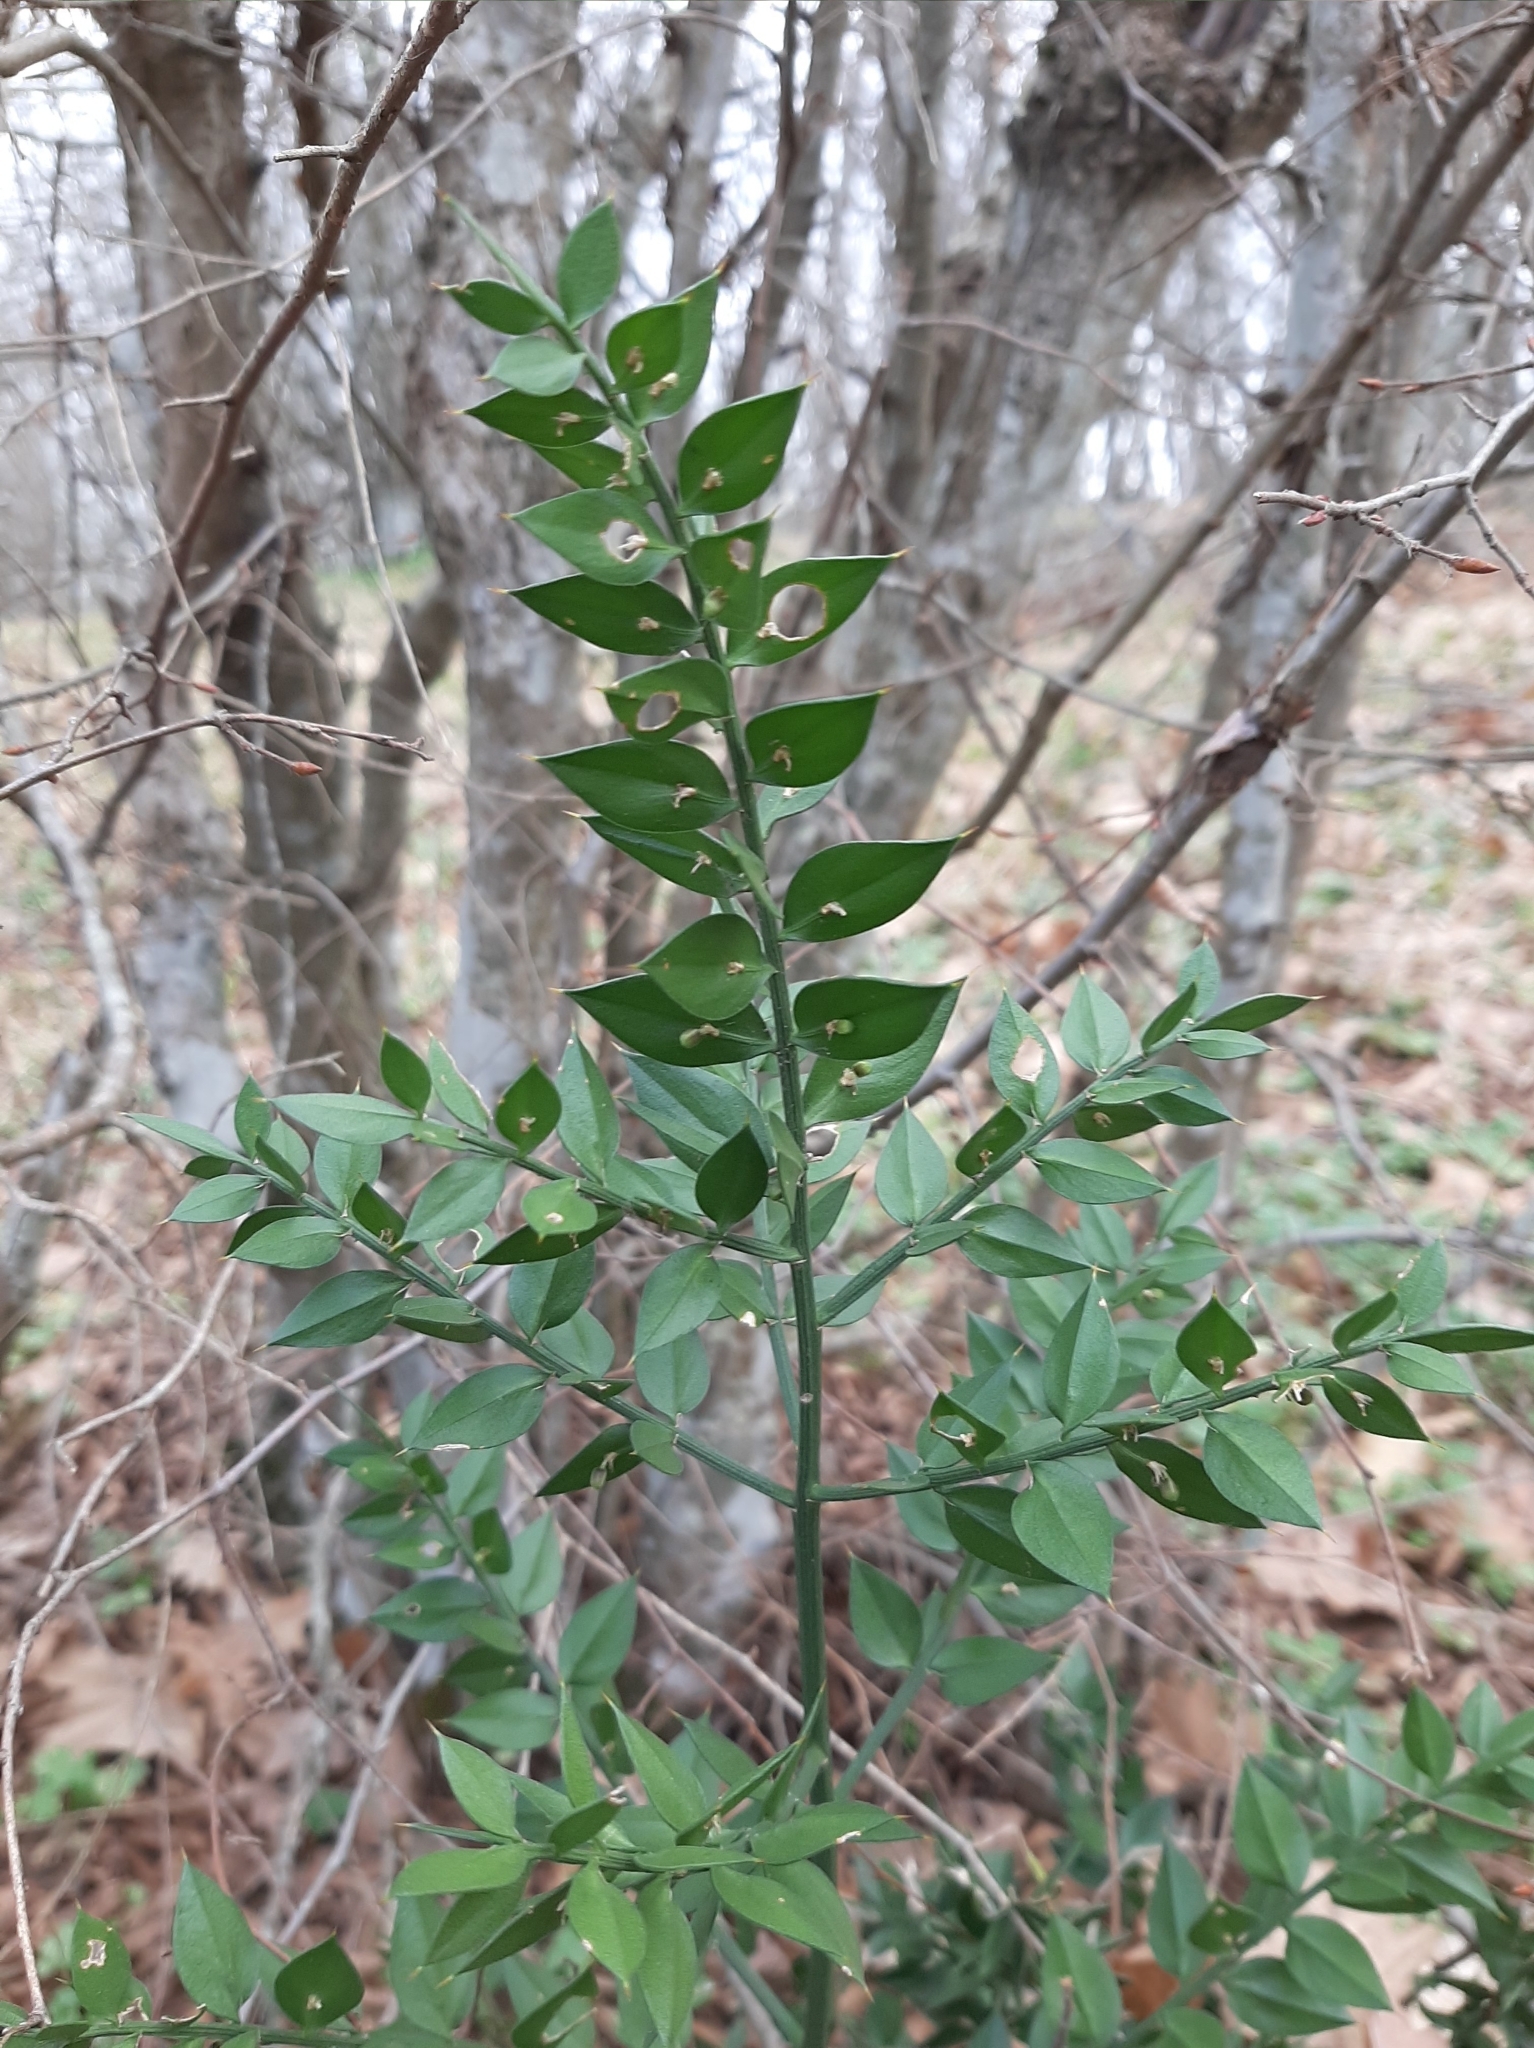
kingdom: Plantae
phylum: Tracheophyta
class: Liliopsida
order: Asparagales
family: Asparagaceae
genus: Ruscus
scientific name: Ruscus aculeatus
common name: Butcher's-broom
